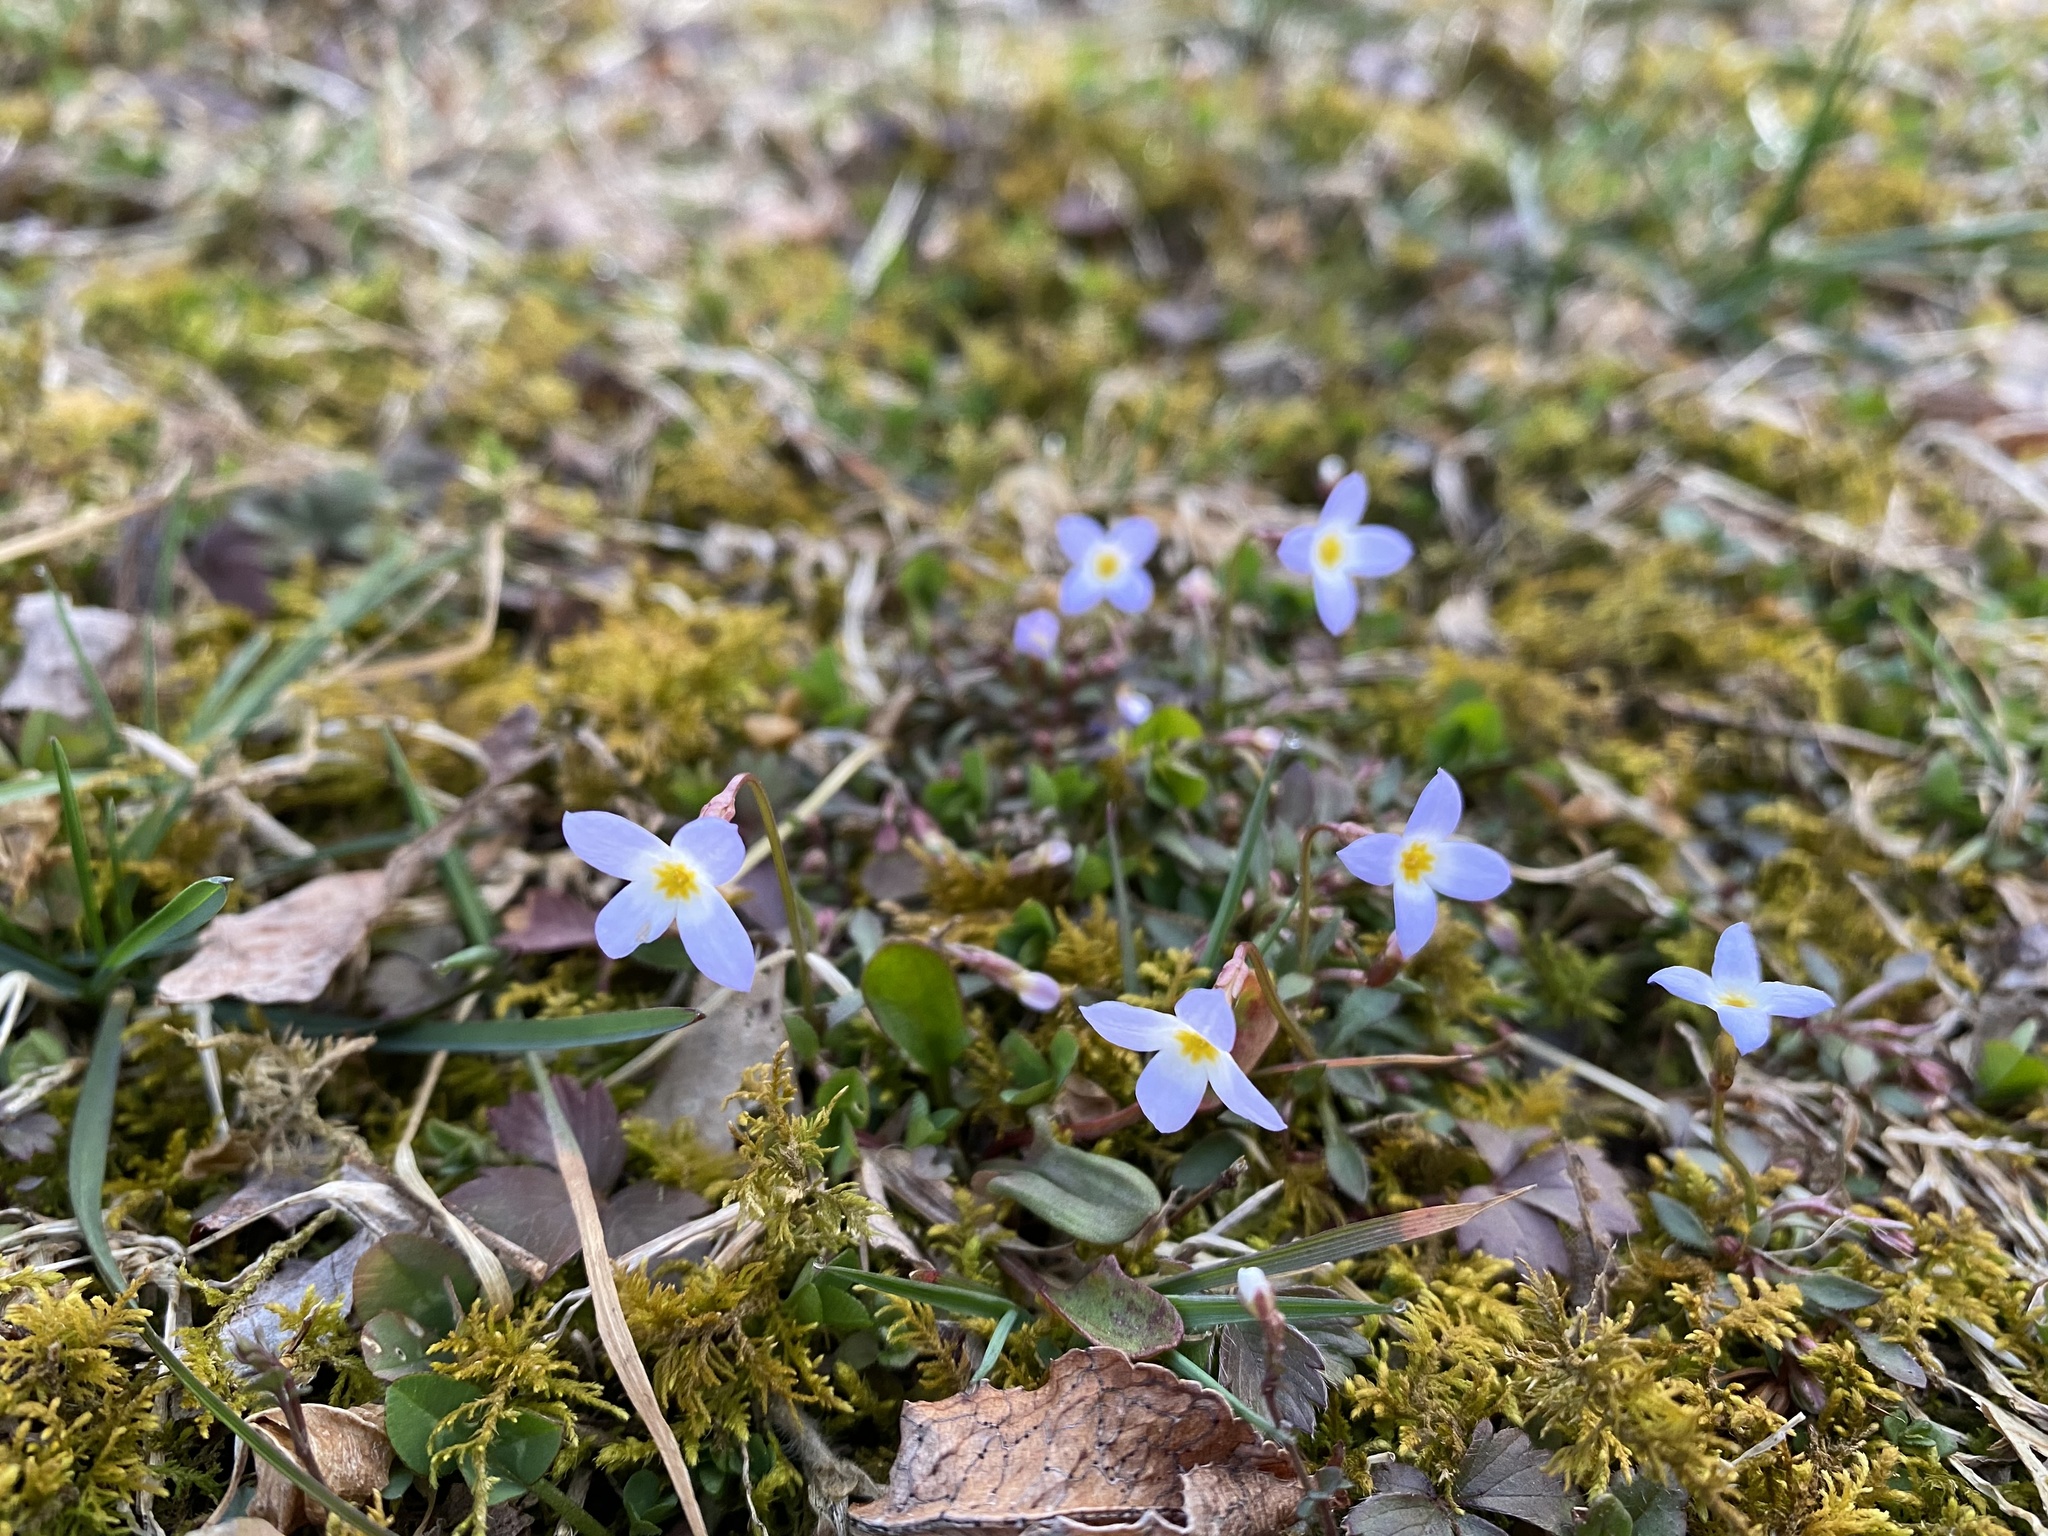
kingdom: Plantae
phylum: Tracheophyta
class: Magnoliopsida
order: Gentianales
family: Rubiaceae
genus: Houstonia
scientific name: Houstonia caerulea
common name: Bluets
